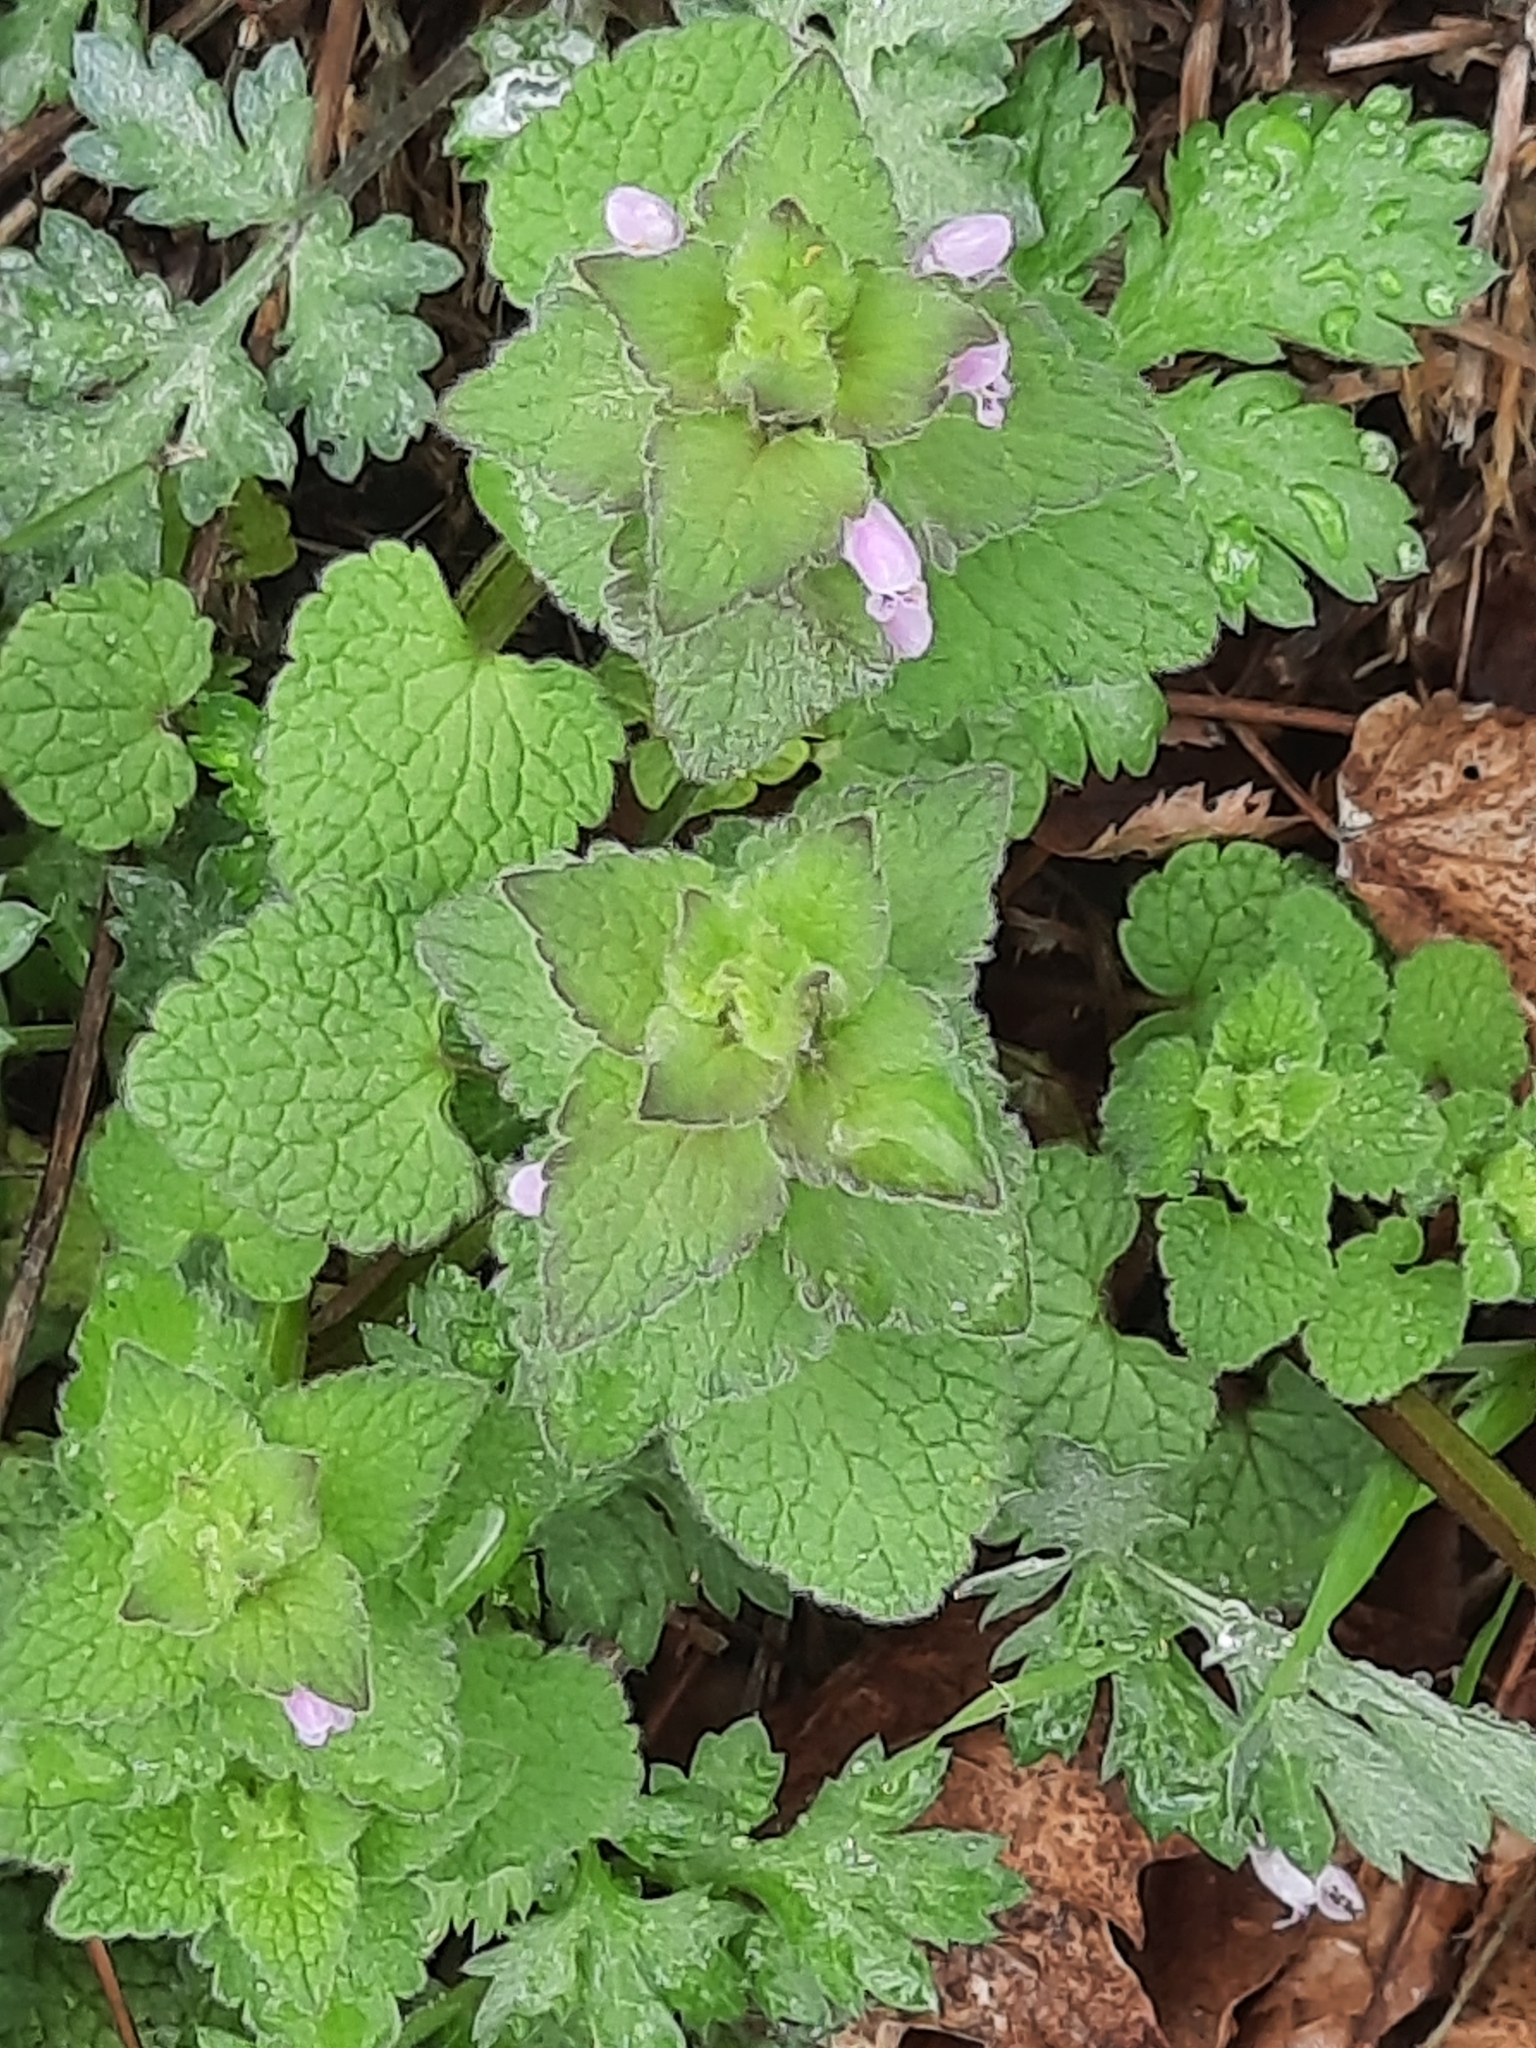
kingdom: Plantae
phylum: Tracheophyta
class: Magnoliopsida
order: Lamiales
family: Lamiaceae
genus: Lamium
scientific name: Lamium purpureum
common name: Red dead-nettle
